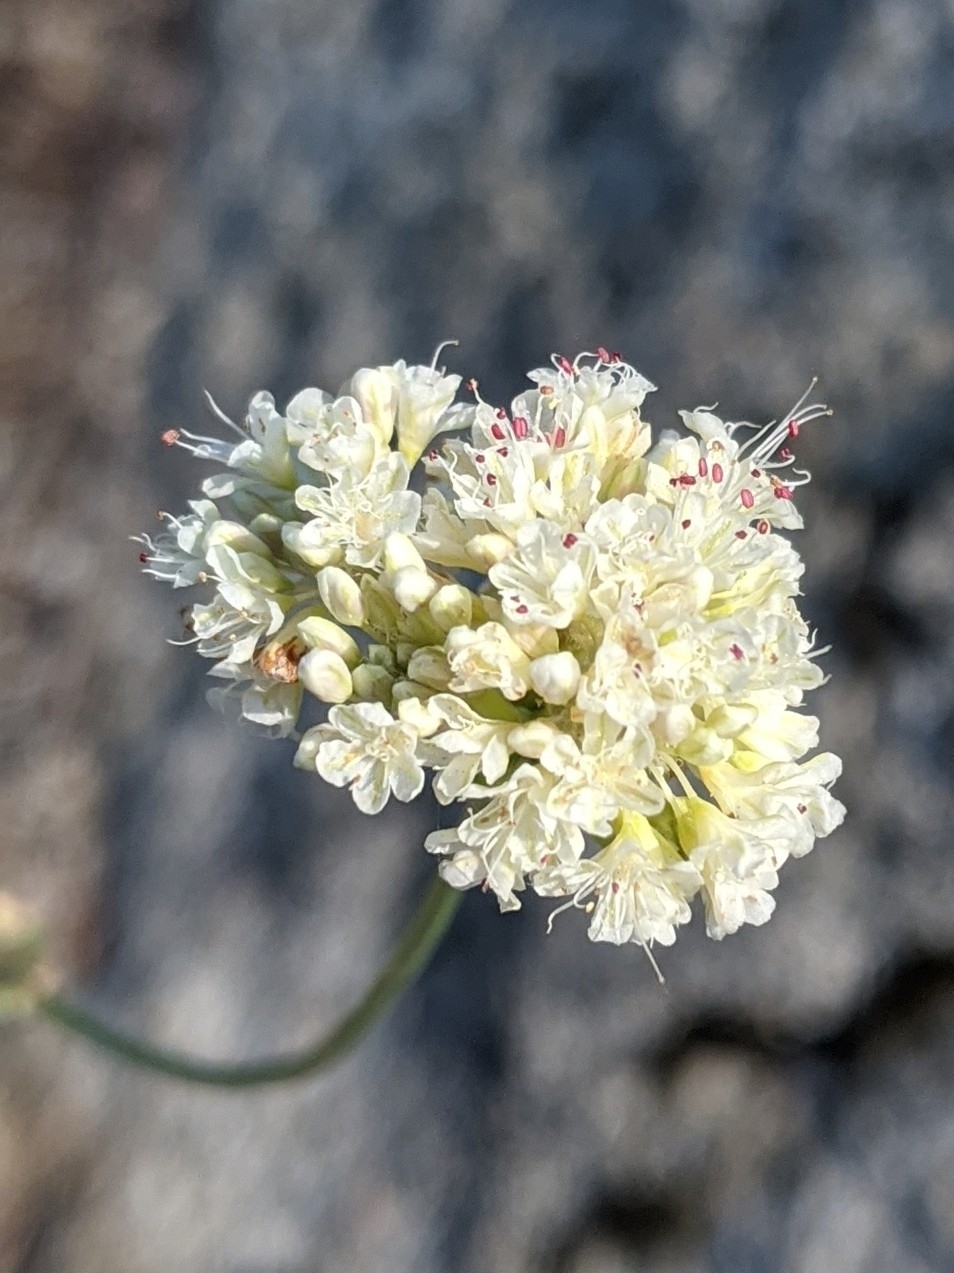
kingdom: Plantae
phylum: Tracheophyta
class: Magnoliopsida
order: Caryophyllales
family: Polygonaceae
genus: Eriogonum
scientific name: Eriogonum nudum
